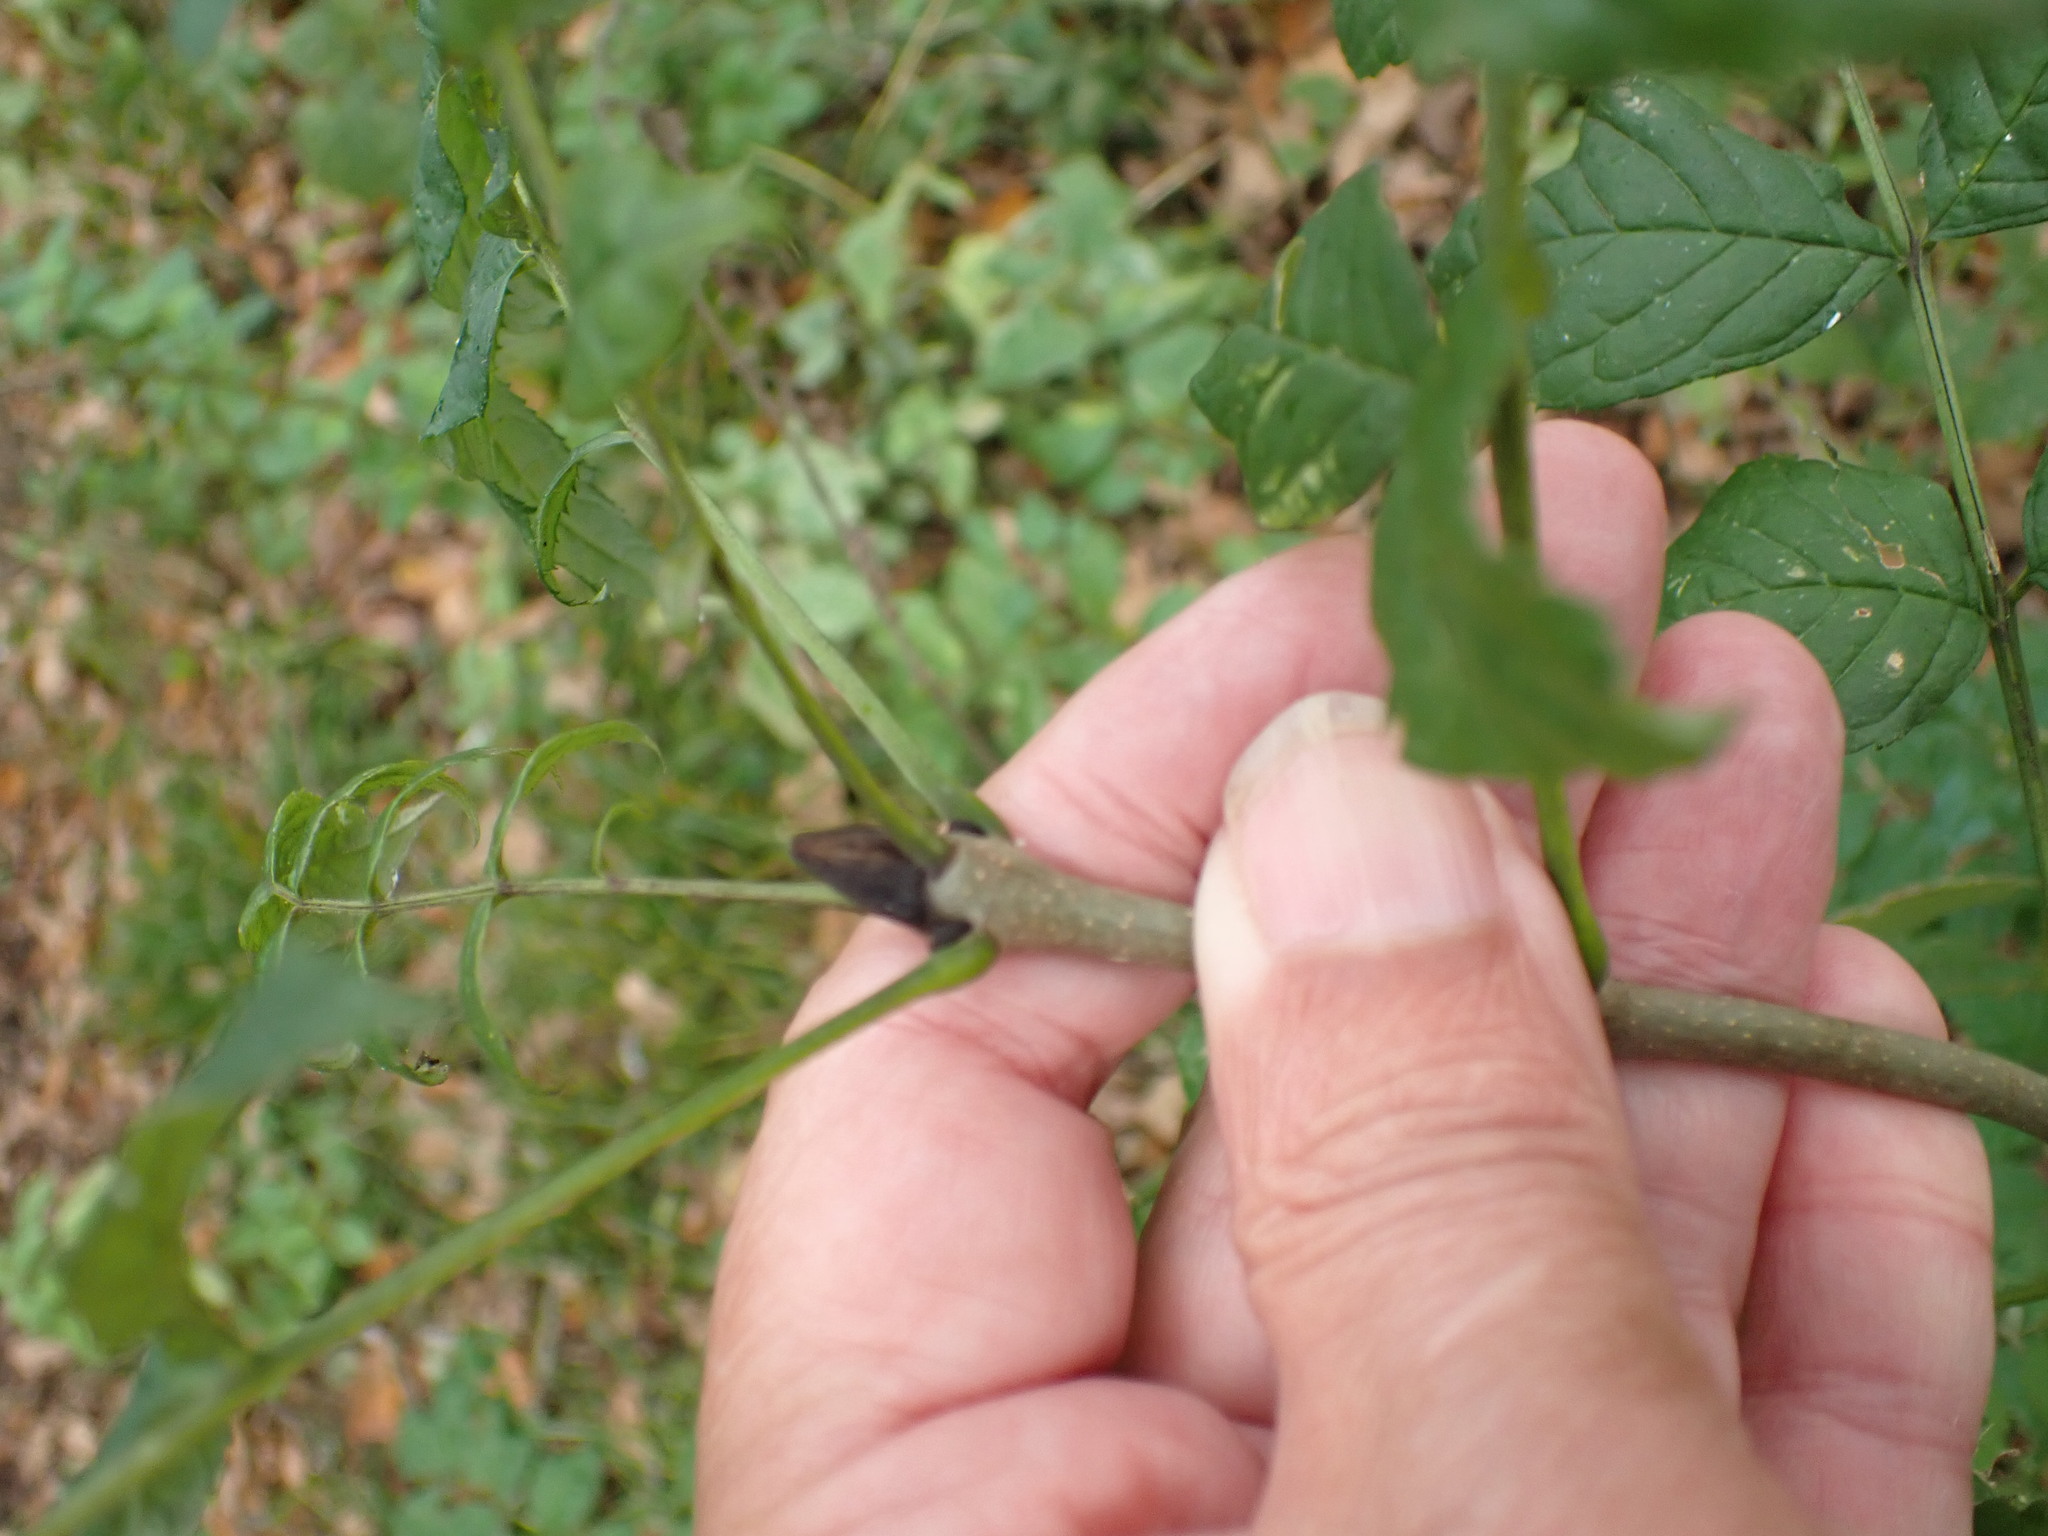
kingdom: Plantae
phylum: Tracheophyta
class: Magnoliopsida
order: Lamiales
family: Oleaceae
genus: Fraxinus
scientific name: Fraxinus excelsior
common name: European ash
